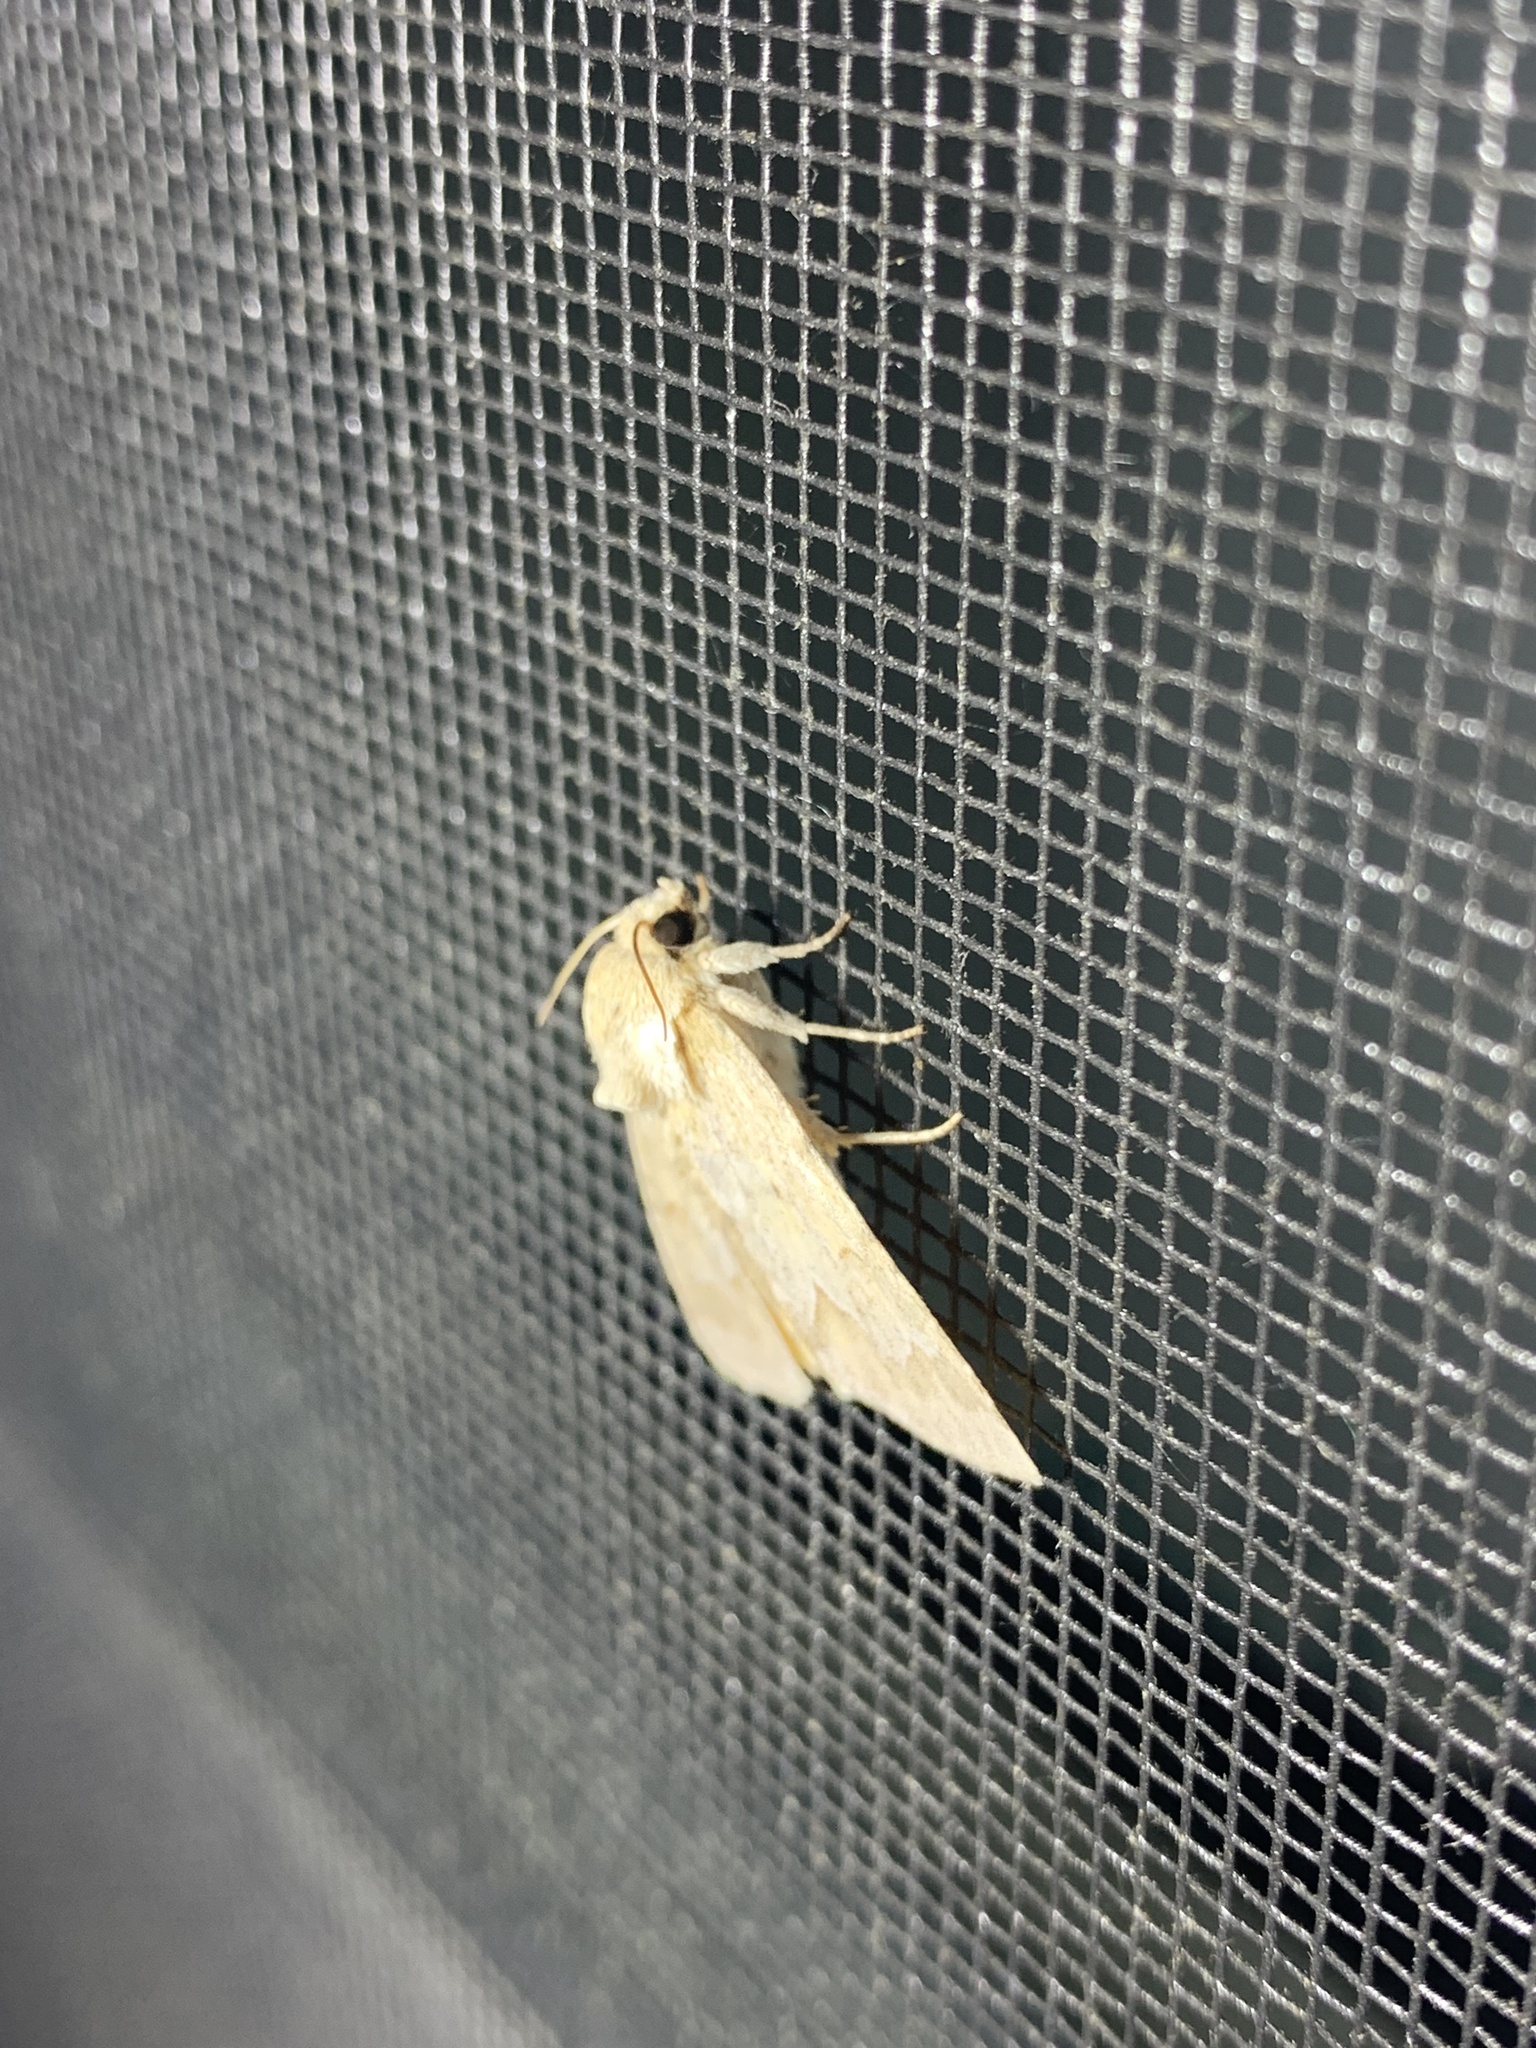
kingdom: Animalia
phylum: Arthropoda
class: Insecta
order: Lepidoptera
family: Noctuidae
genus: Acronicta
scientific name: Acronicta betulae
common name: Birch dagger moth
